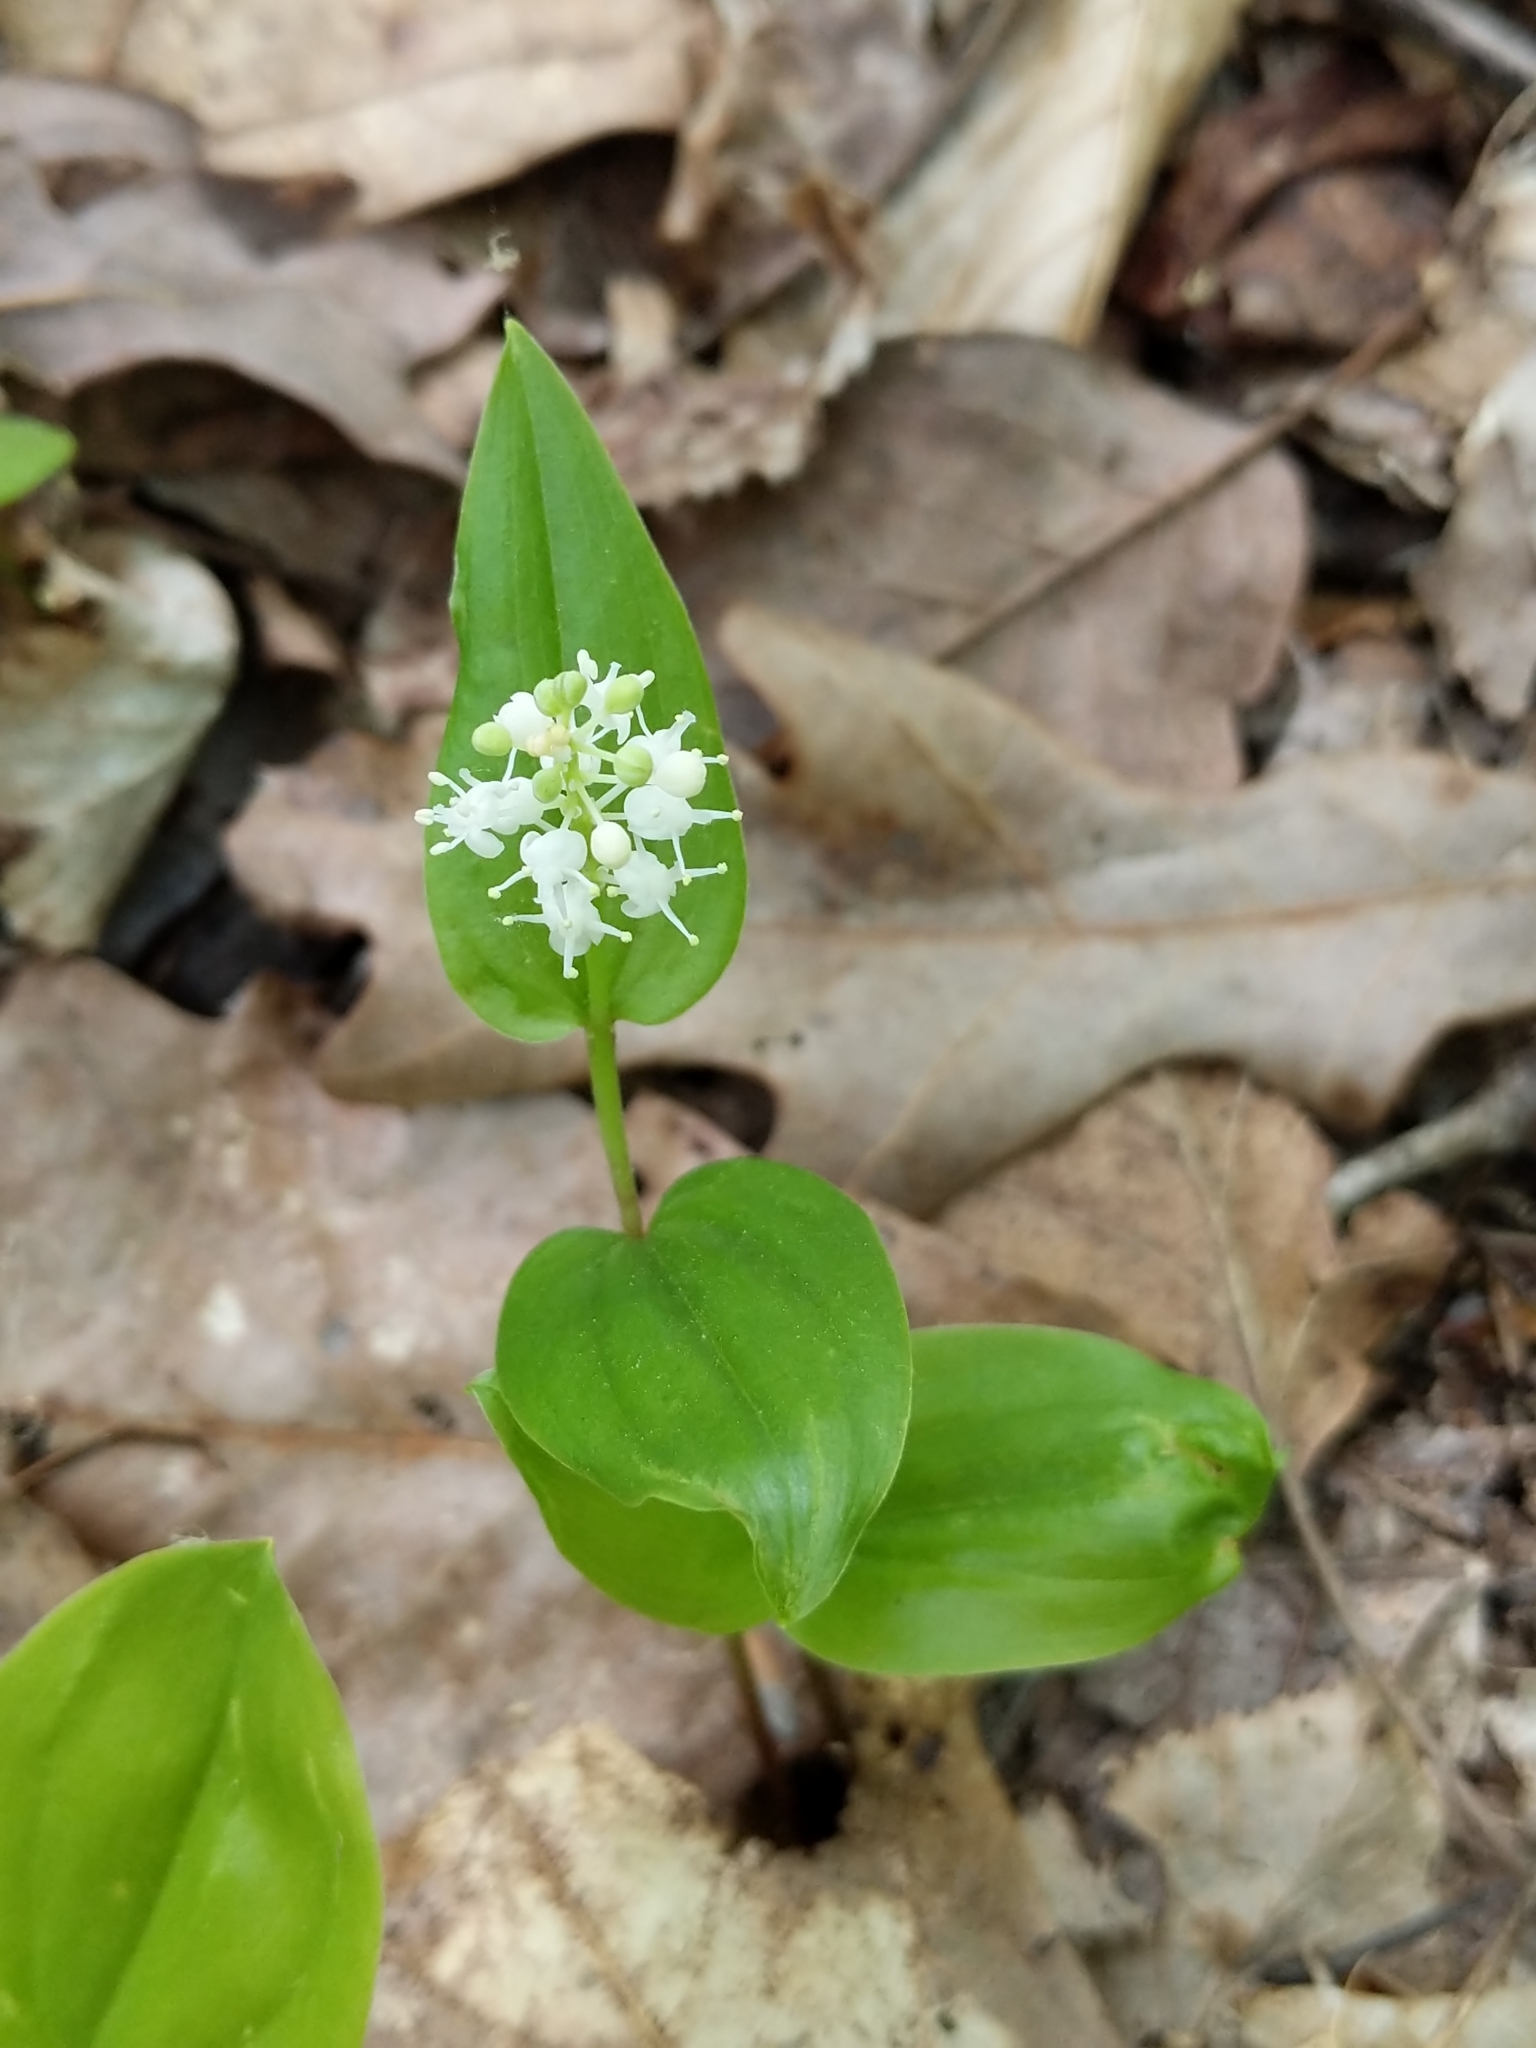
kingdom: Plantae
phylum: Tracheophyta
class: Liliopsida
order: Asparagales
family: Asparagaceae
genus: Maianthemum
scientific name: Maianthemum canadense
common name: False lily-of-the-valley
